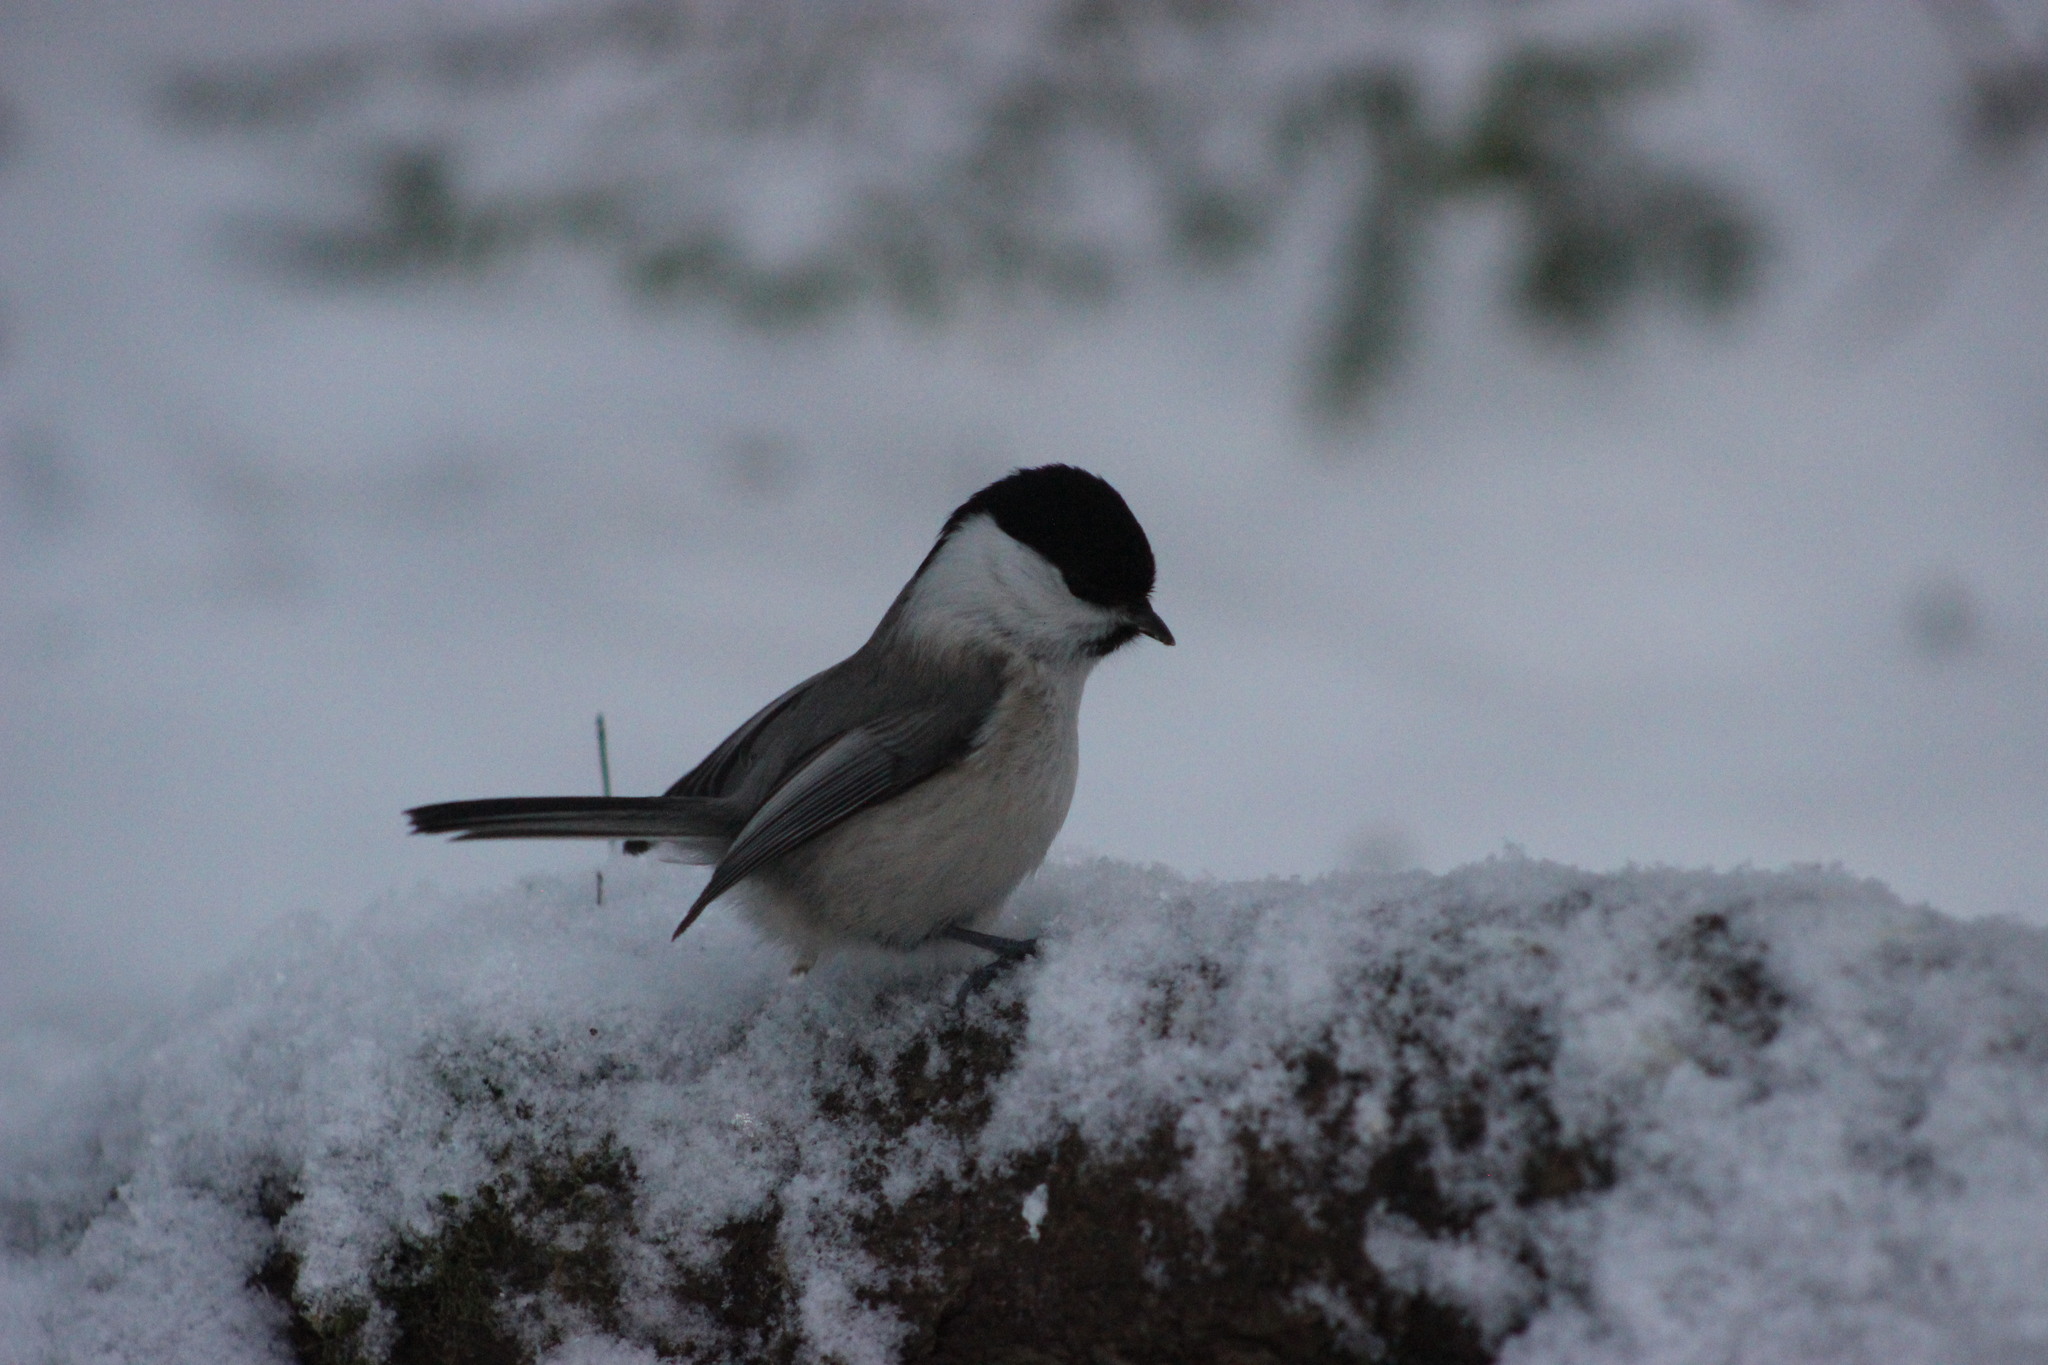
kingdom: Animalia
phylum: Chordata
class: Aves
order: Passeriformes
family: Paridae
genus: Poecile
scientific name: Poecile montanus
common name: Willow tit
